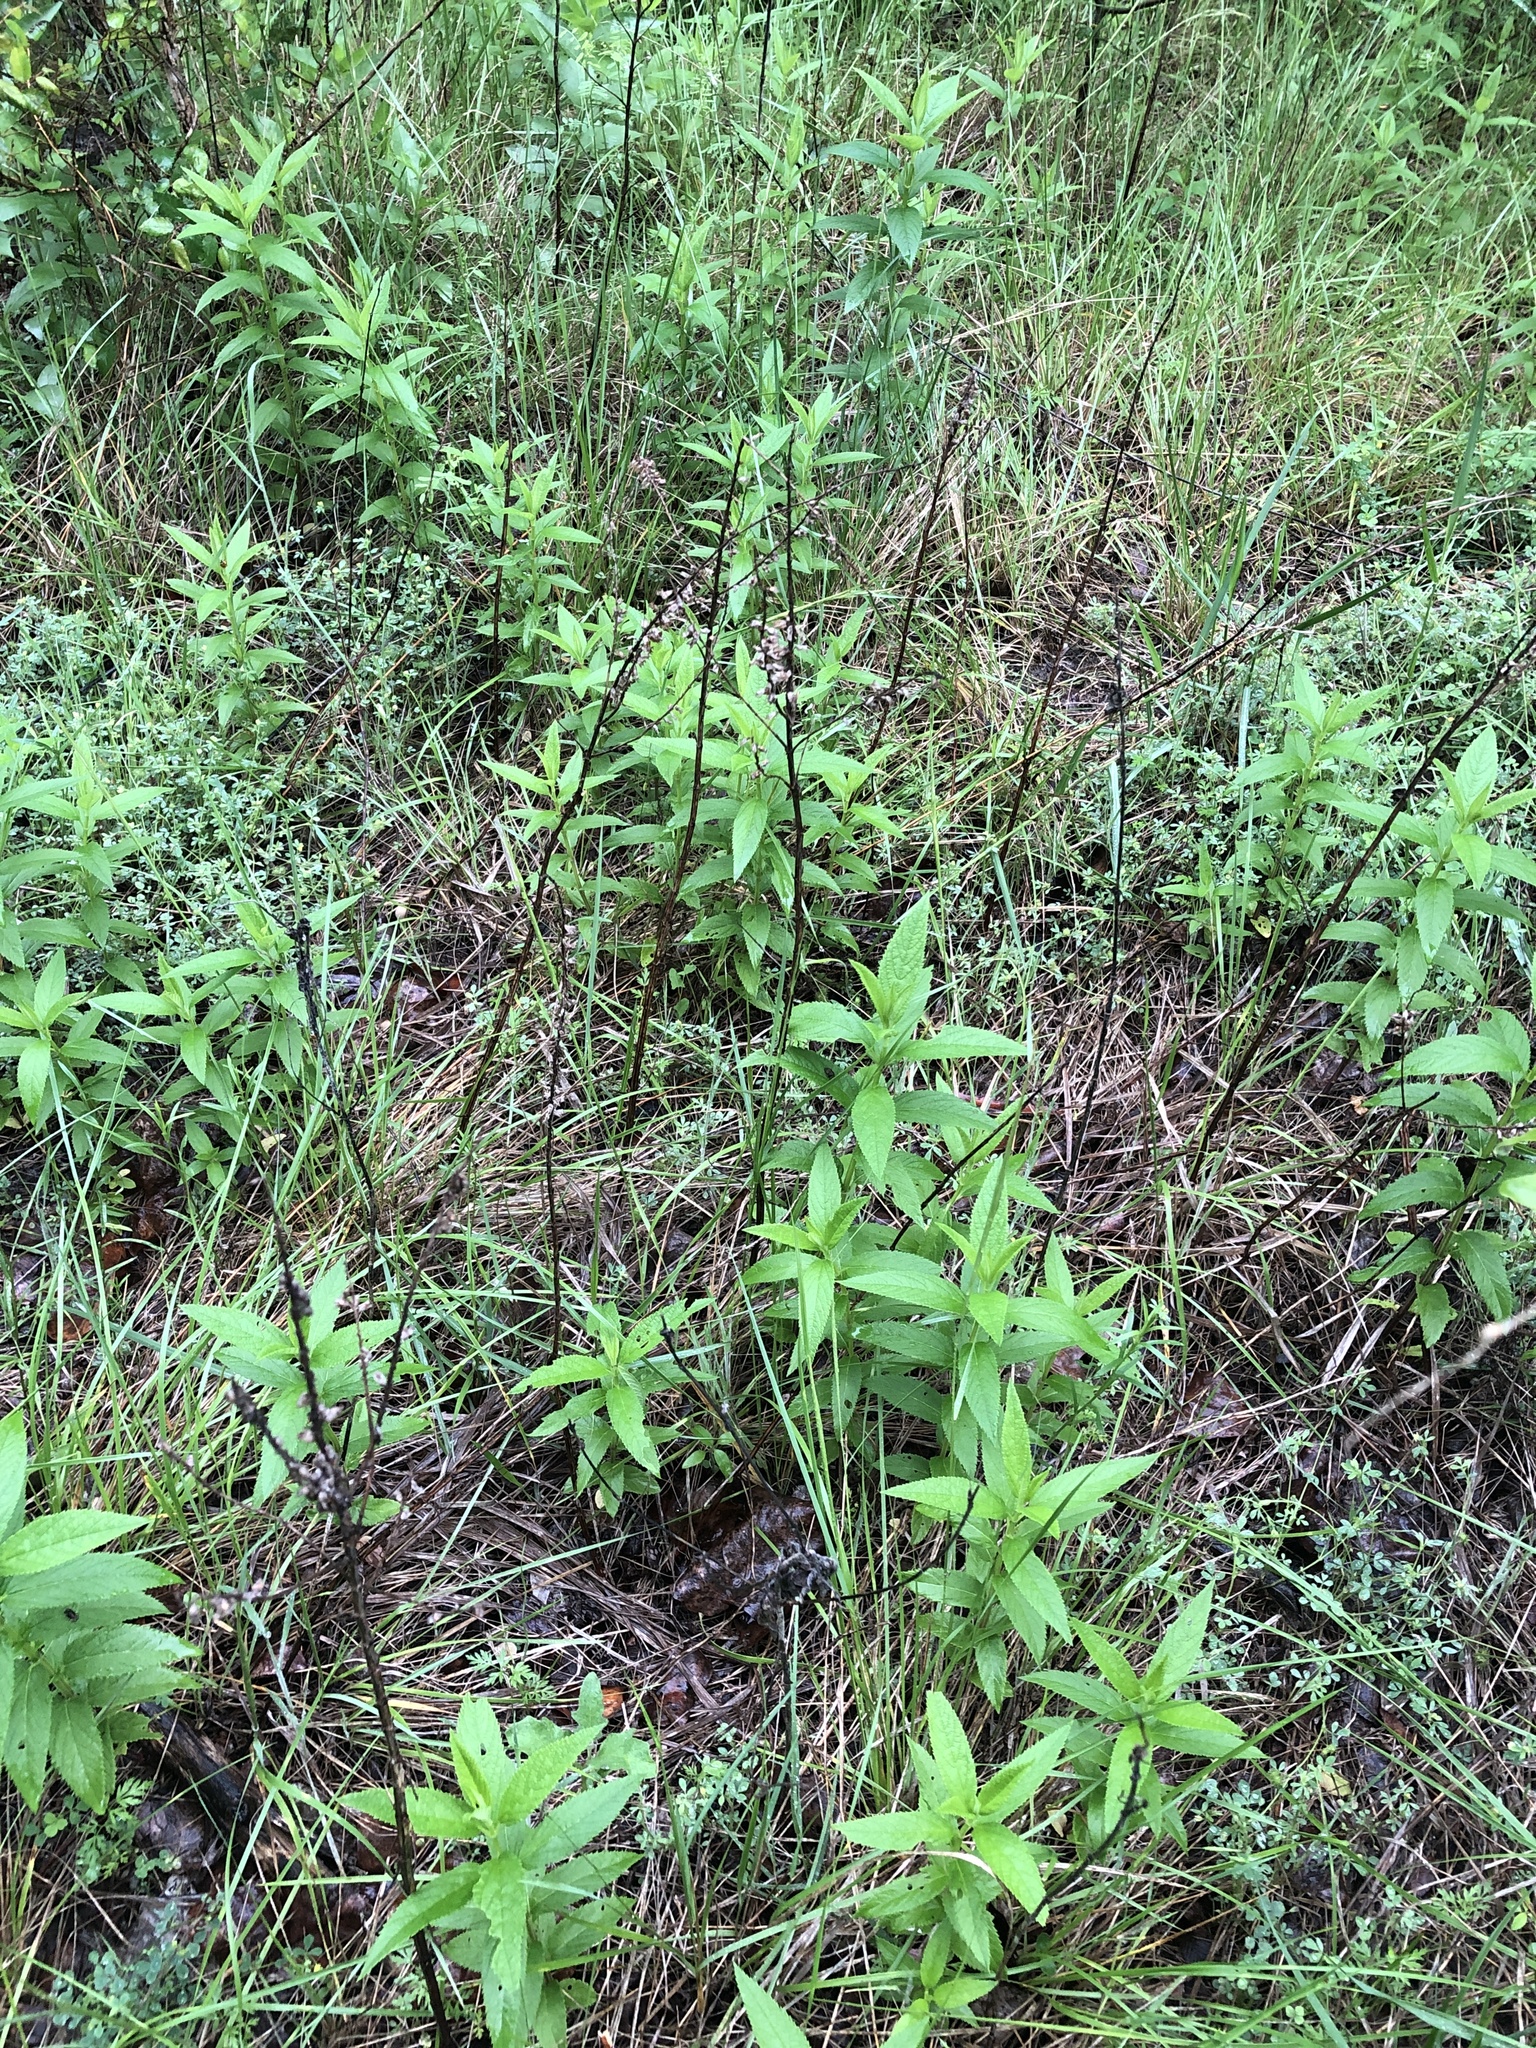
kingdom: Plantae
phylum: Tracheophyta
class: Magnoliopsida
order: Lamiales
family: Lamiaceae
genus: Teucrium
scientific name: Teucrium canadense
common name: American germander
